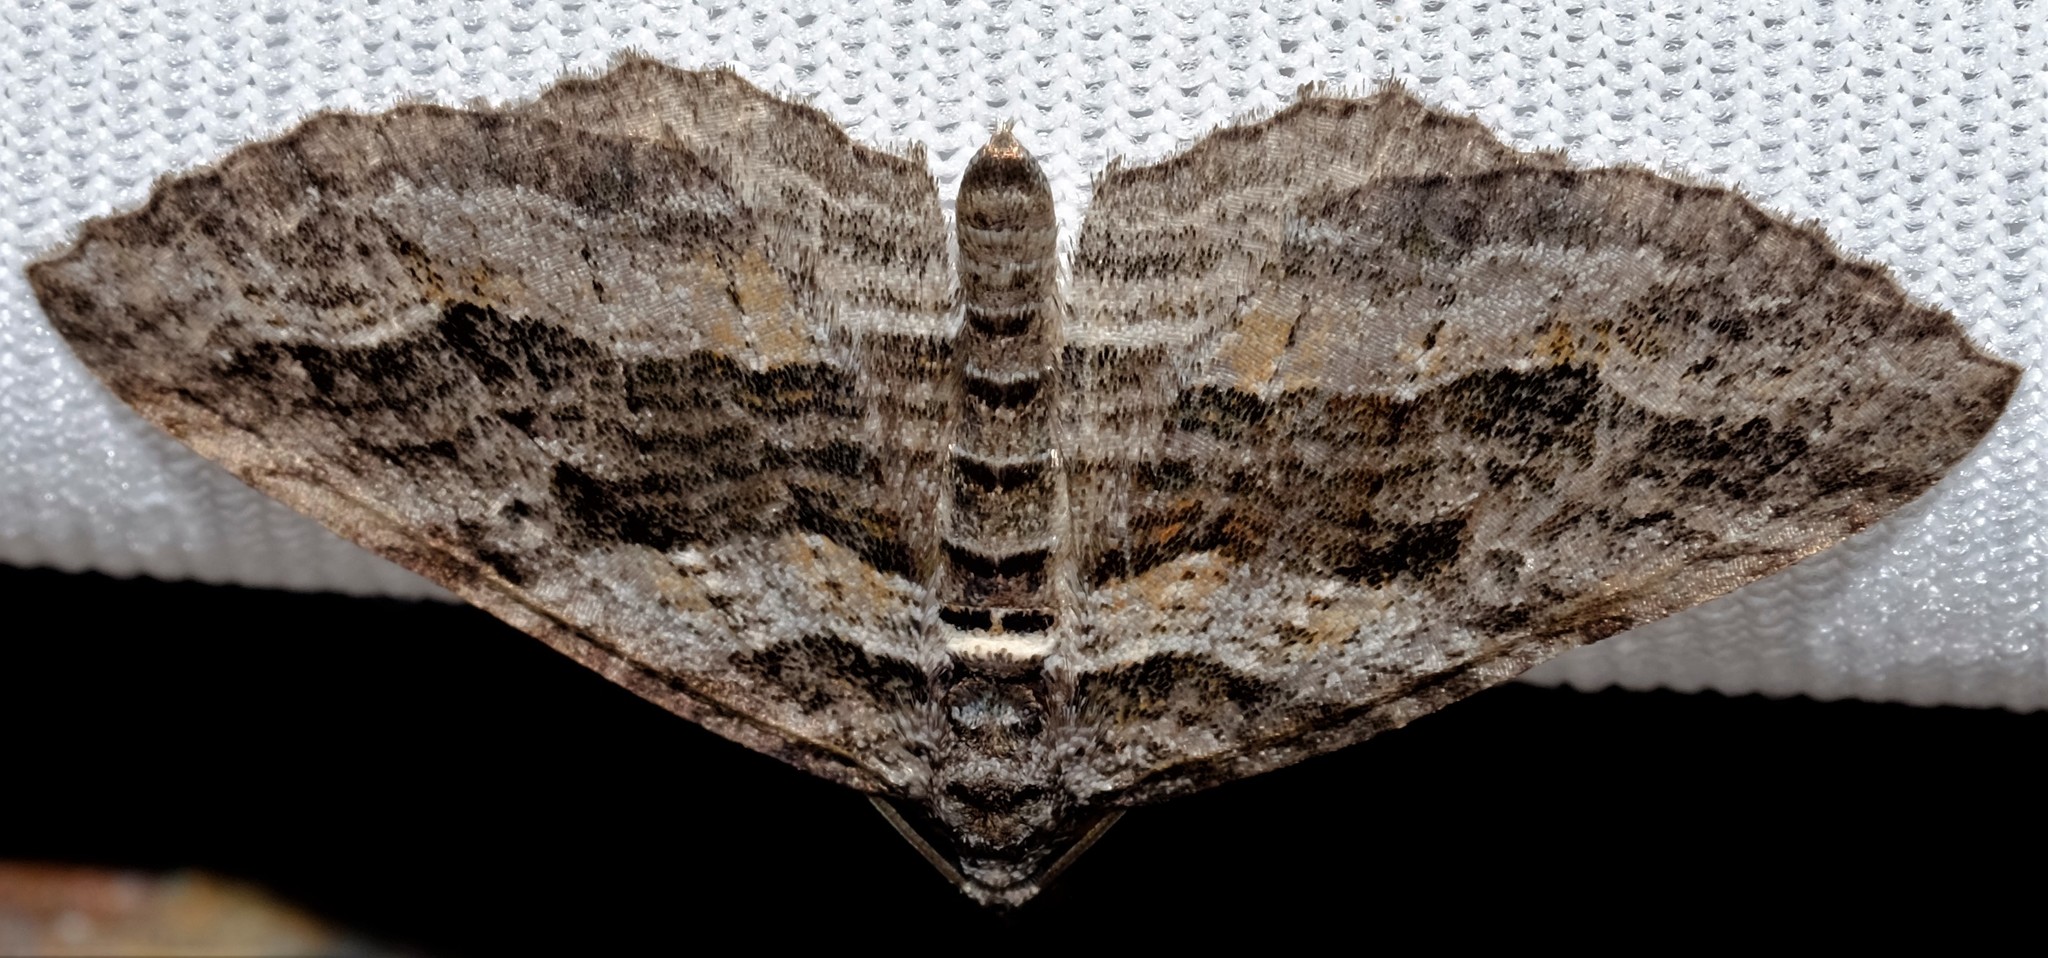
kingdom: Animalia
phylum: Arthropoda
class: Insecta
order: Lepidoptera
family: Geometridae
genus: Chrysolarentia
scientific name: Chrysolarentia severata
